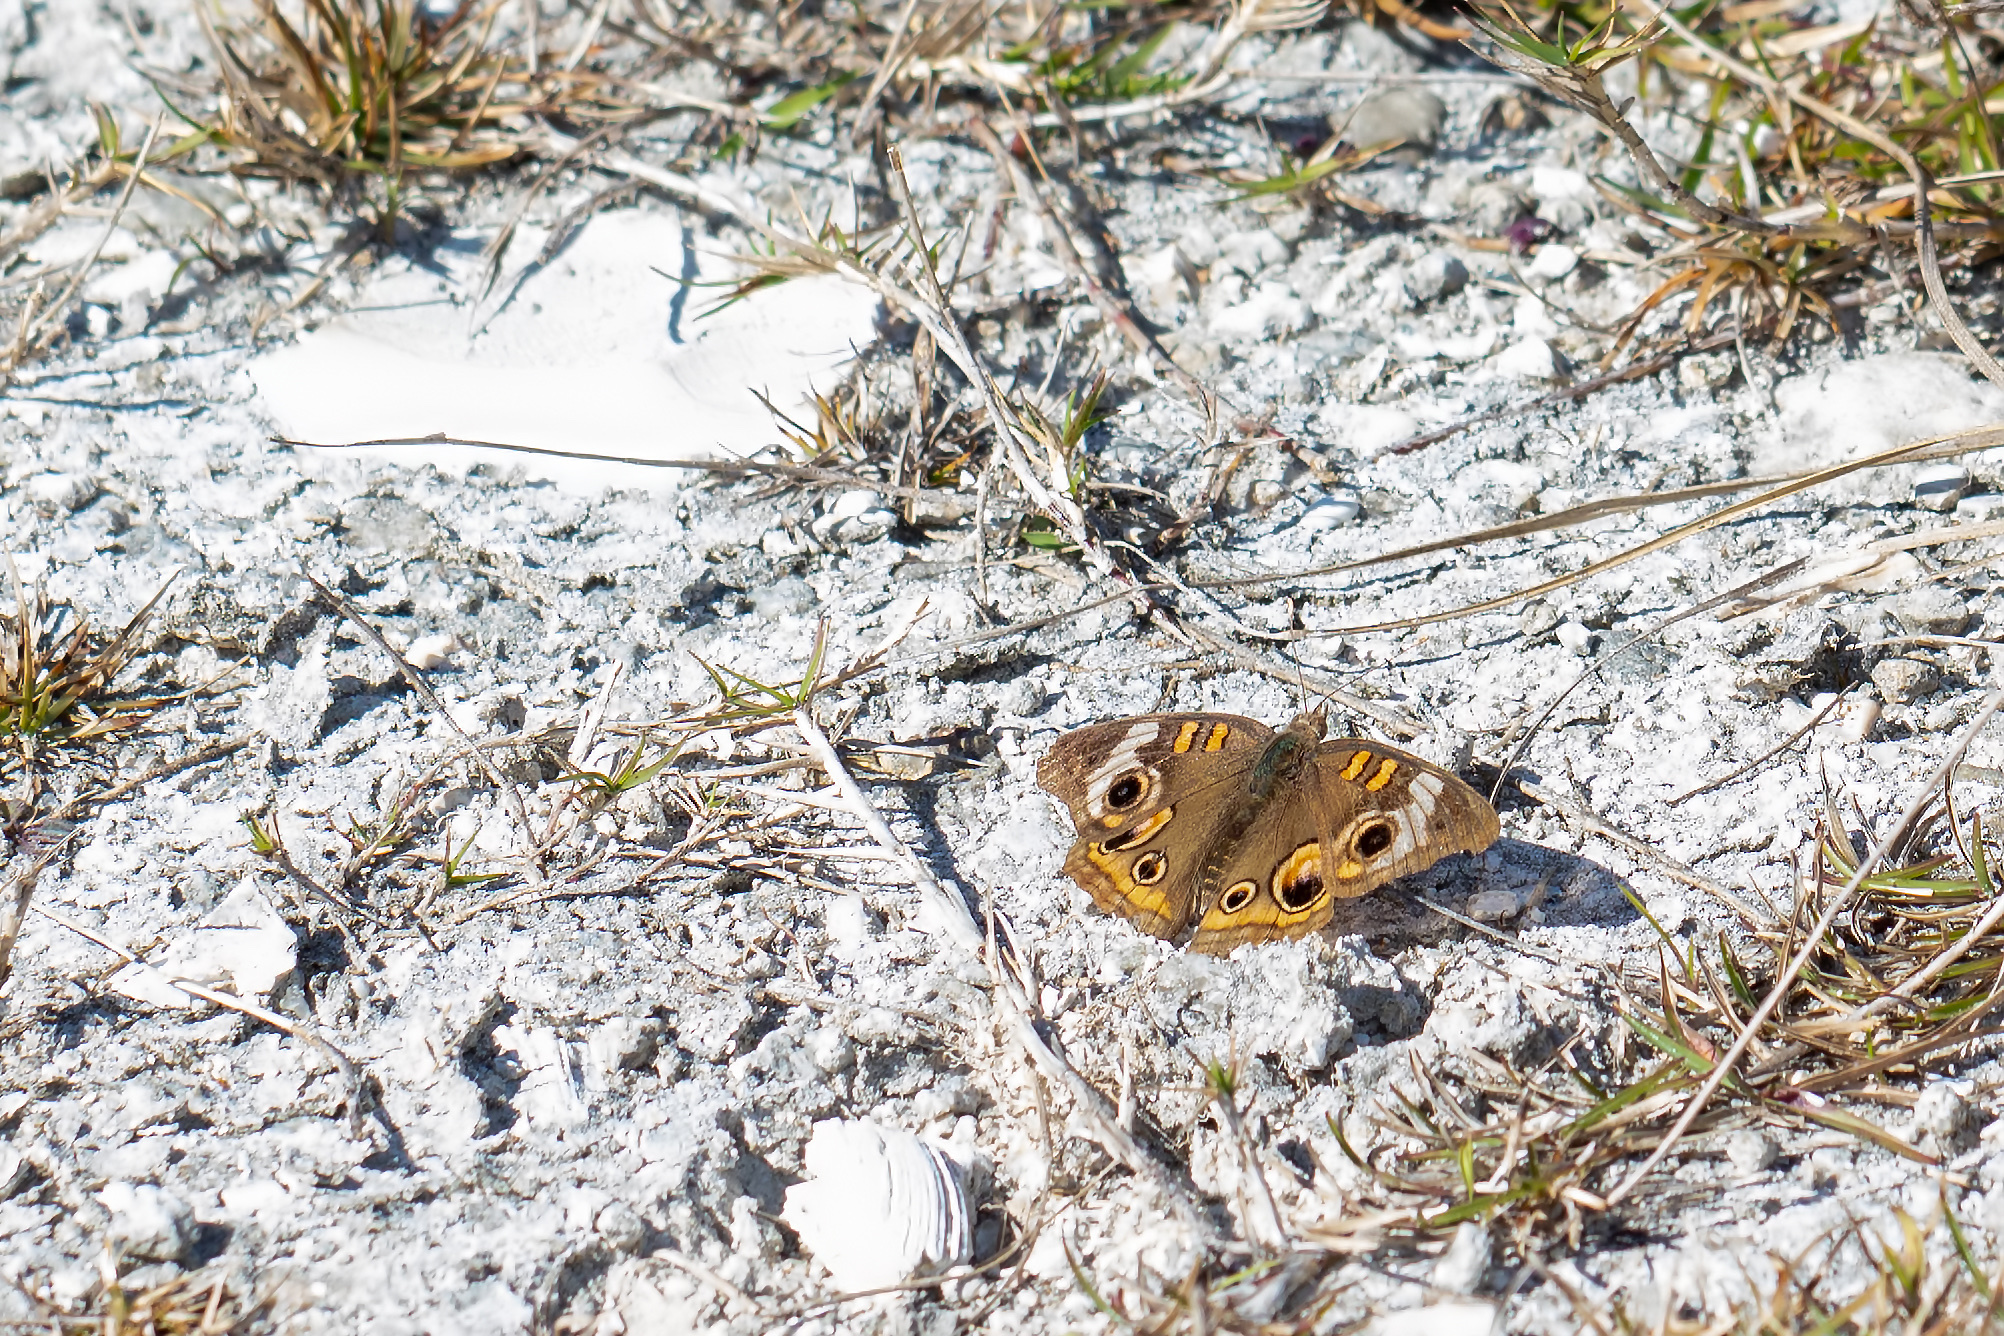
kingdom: Animalia
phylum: Arthropoda
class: Insecta
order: Lepidoptera
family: Nymphalidae
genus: Junonia
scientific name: Junonia coenia
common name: Common buckeye
